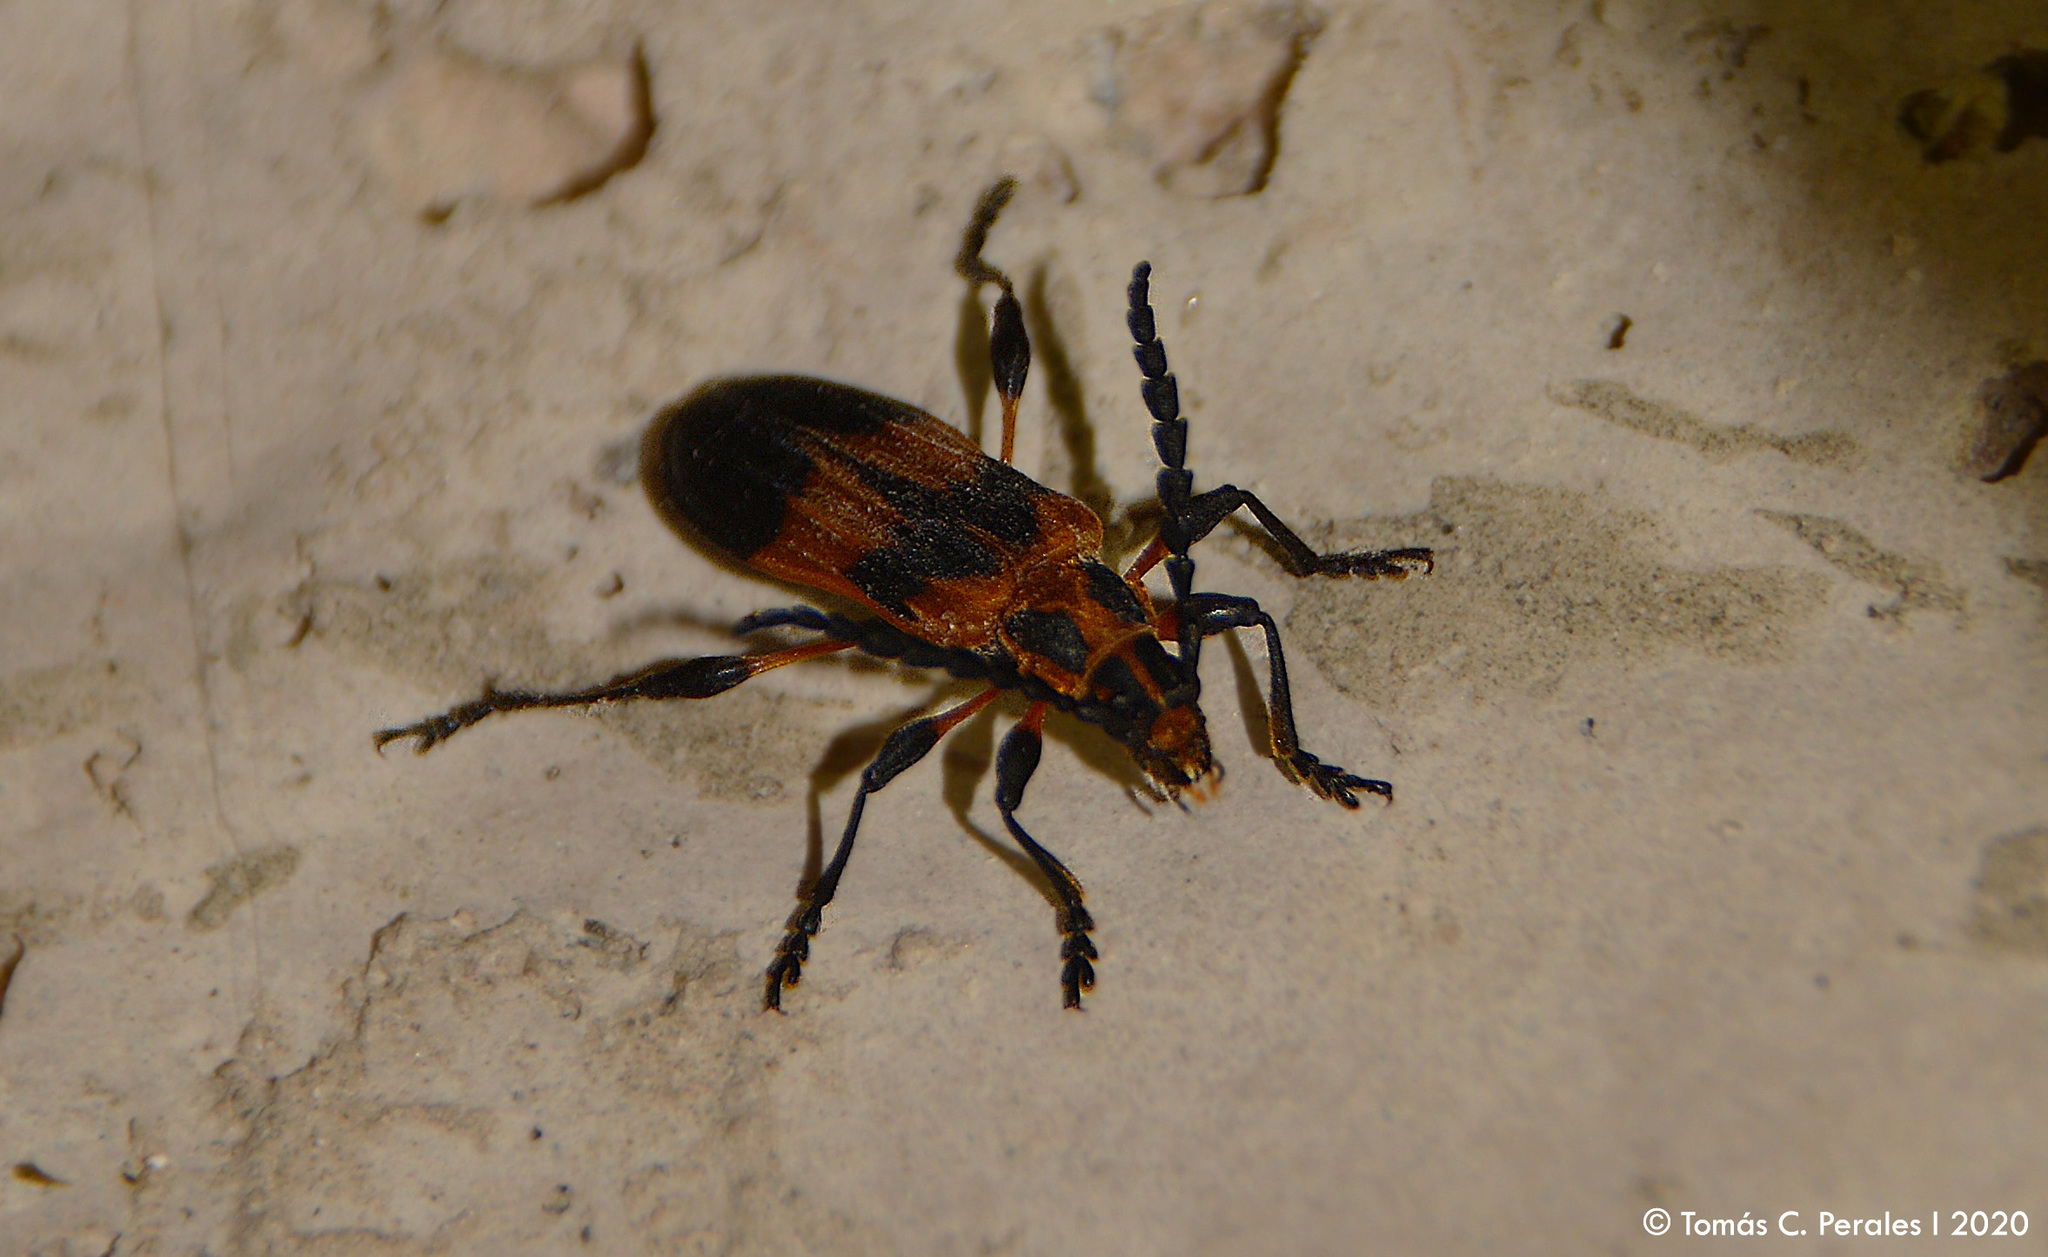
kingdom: Animalia
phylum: Arthropoda
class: Insecta
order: Coleoptera
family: Cerambycidae
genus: Aphylax
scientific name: Aphylax lyciformis
